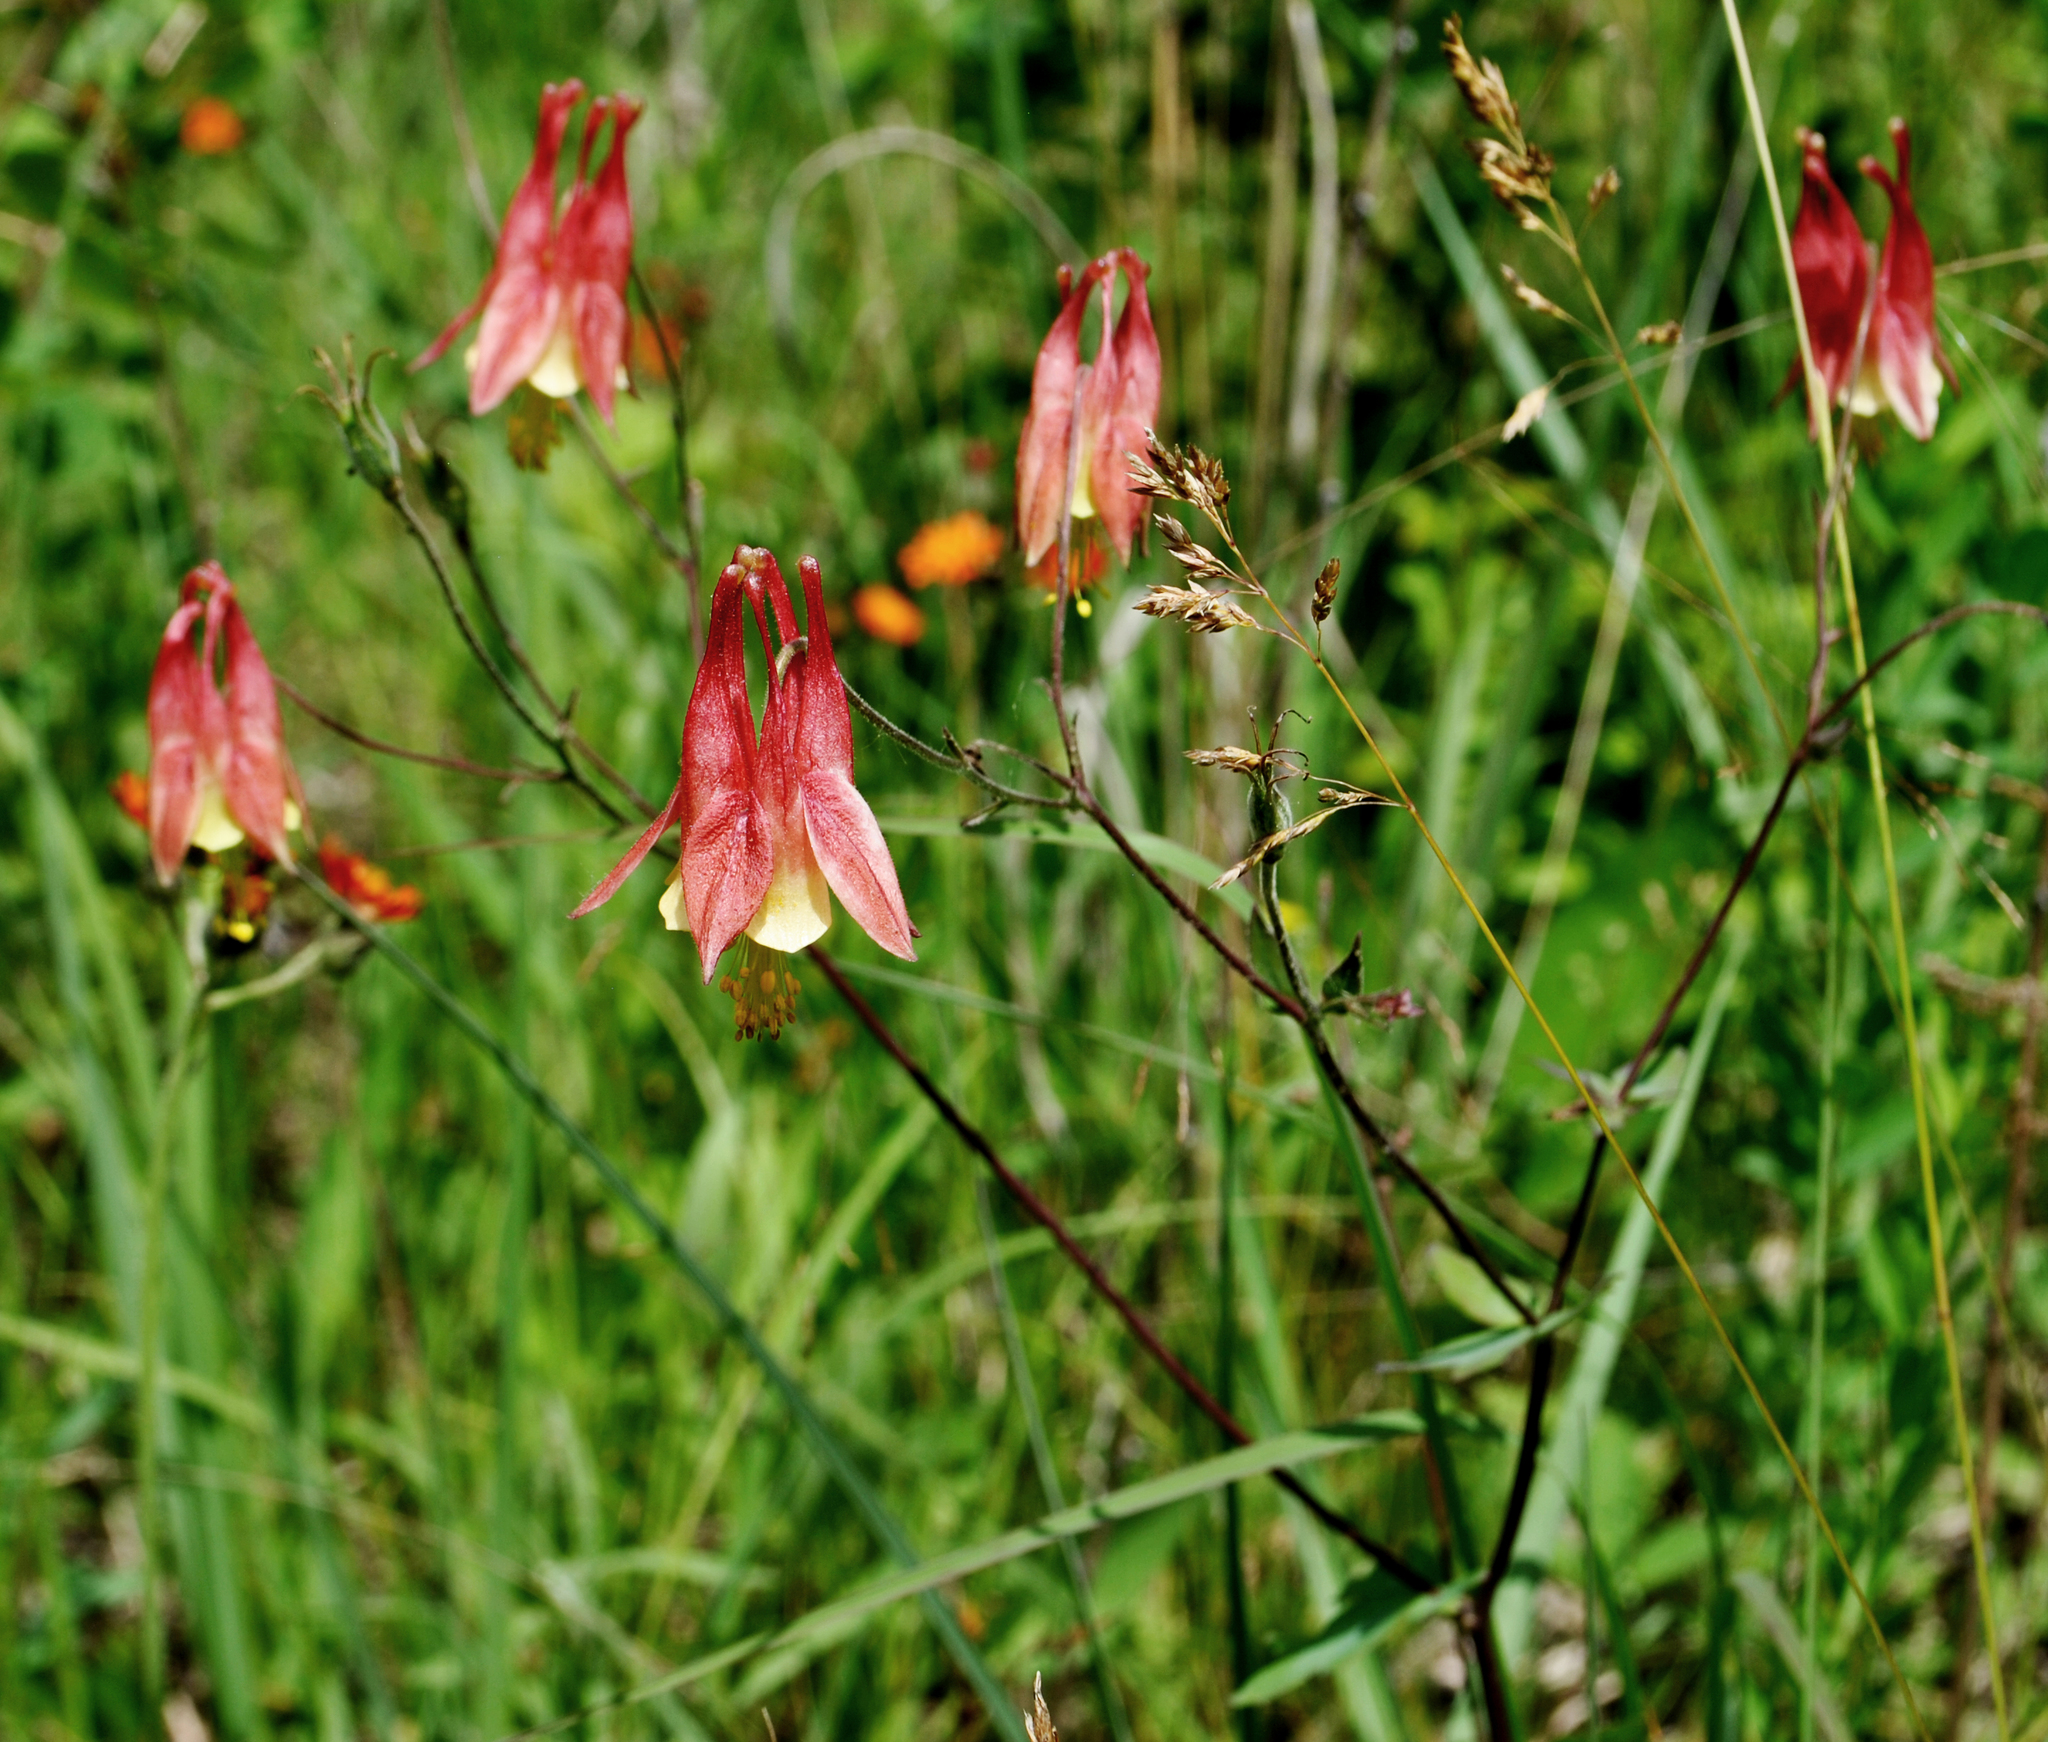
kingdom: Plantae
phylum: Tracheophyta
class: Magnoliopsida
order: Ranunculales
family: Ranunculaceae
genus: Aquilegia
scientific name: Aquilegia canadensis
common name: American columbine
